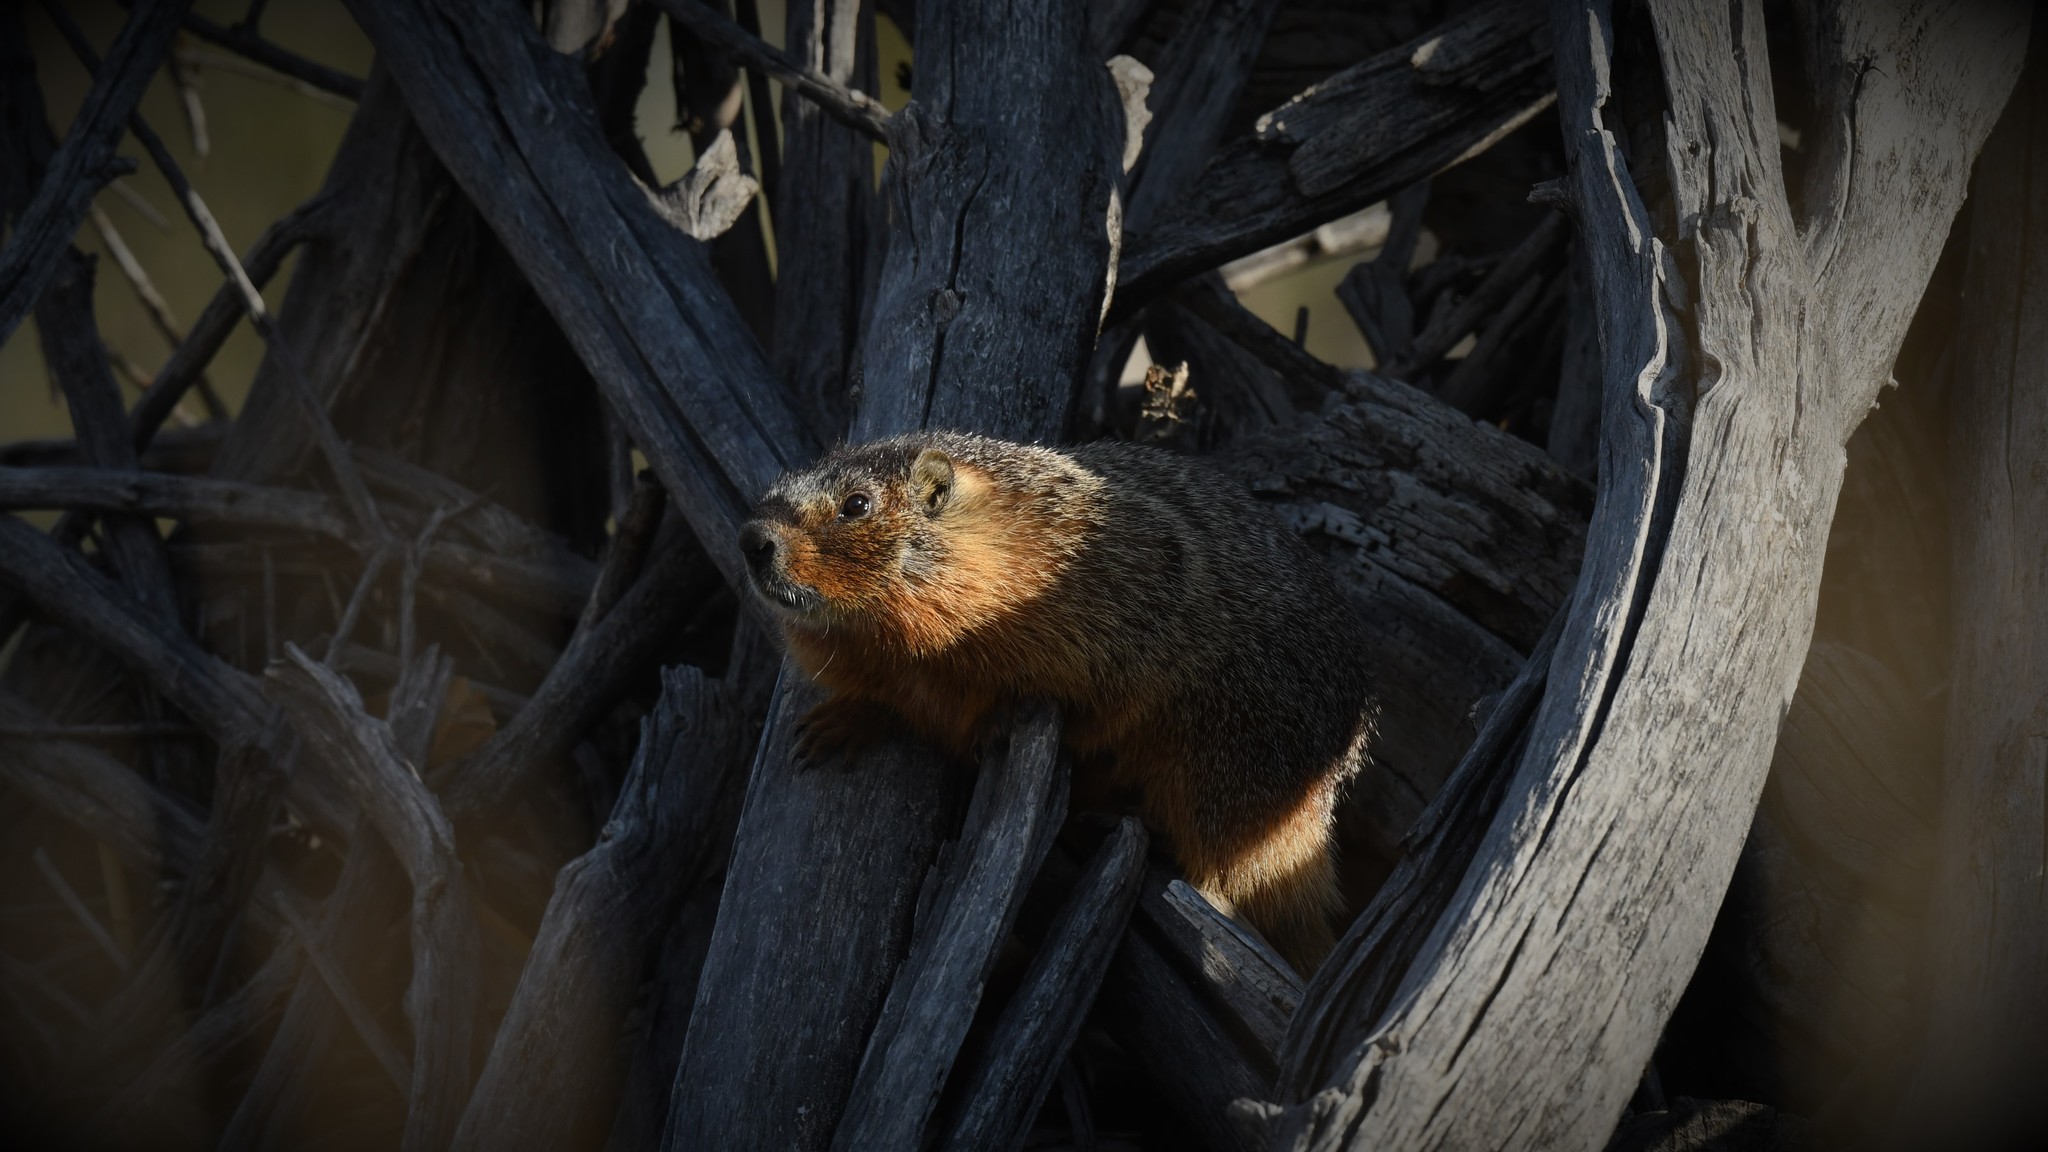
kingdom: Animalia
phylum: Chordata
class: Mammalia
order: Rodentia
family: Sciuridae
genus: Marmota
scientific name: Marmota flaviventris
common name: Yellow-bellied marmot
